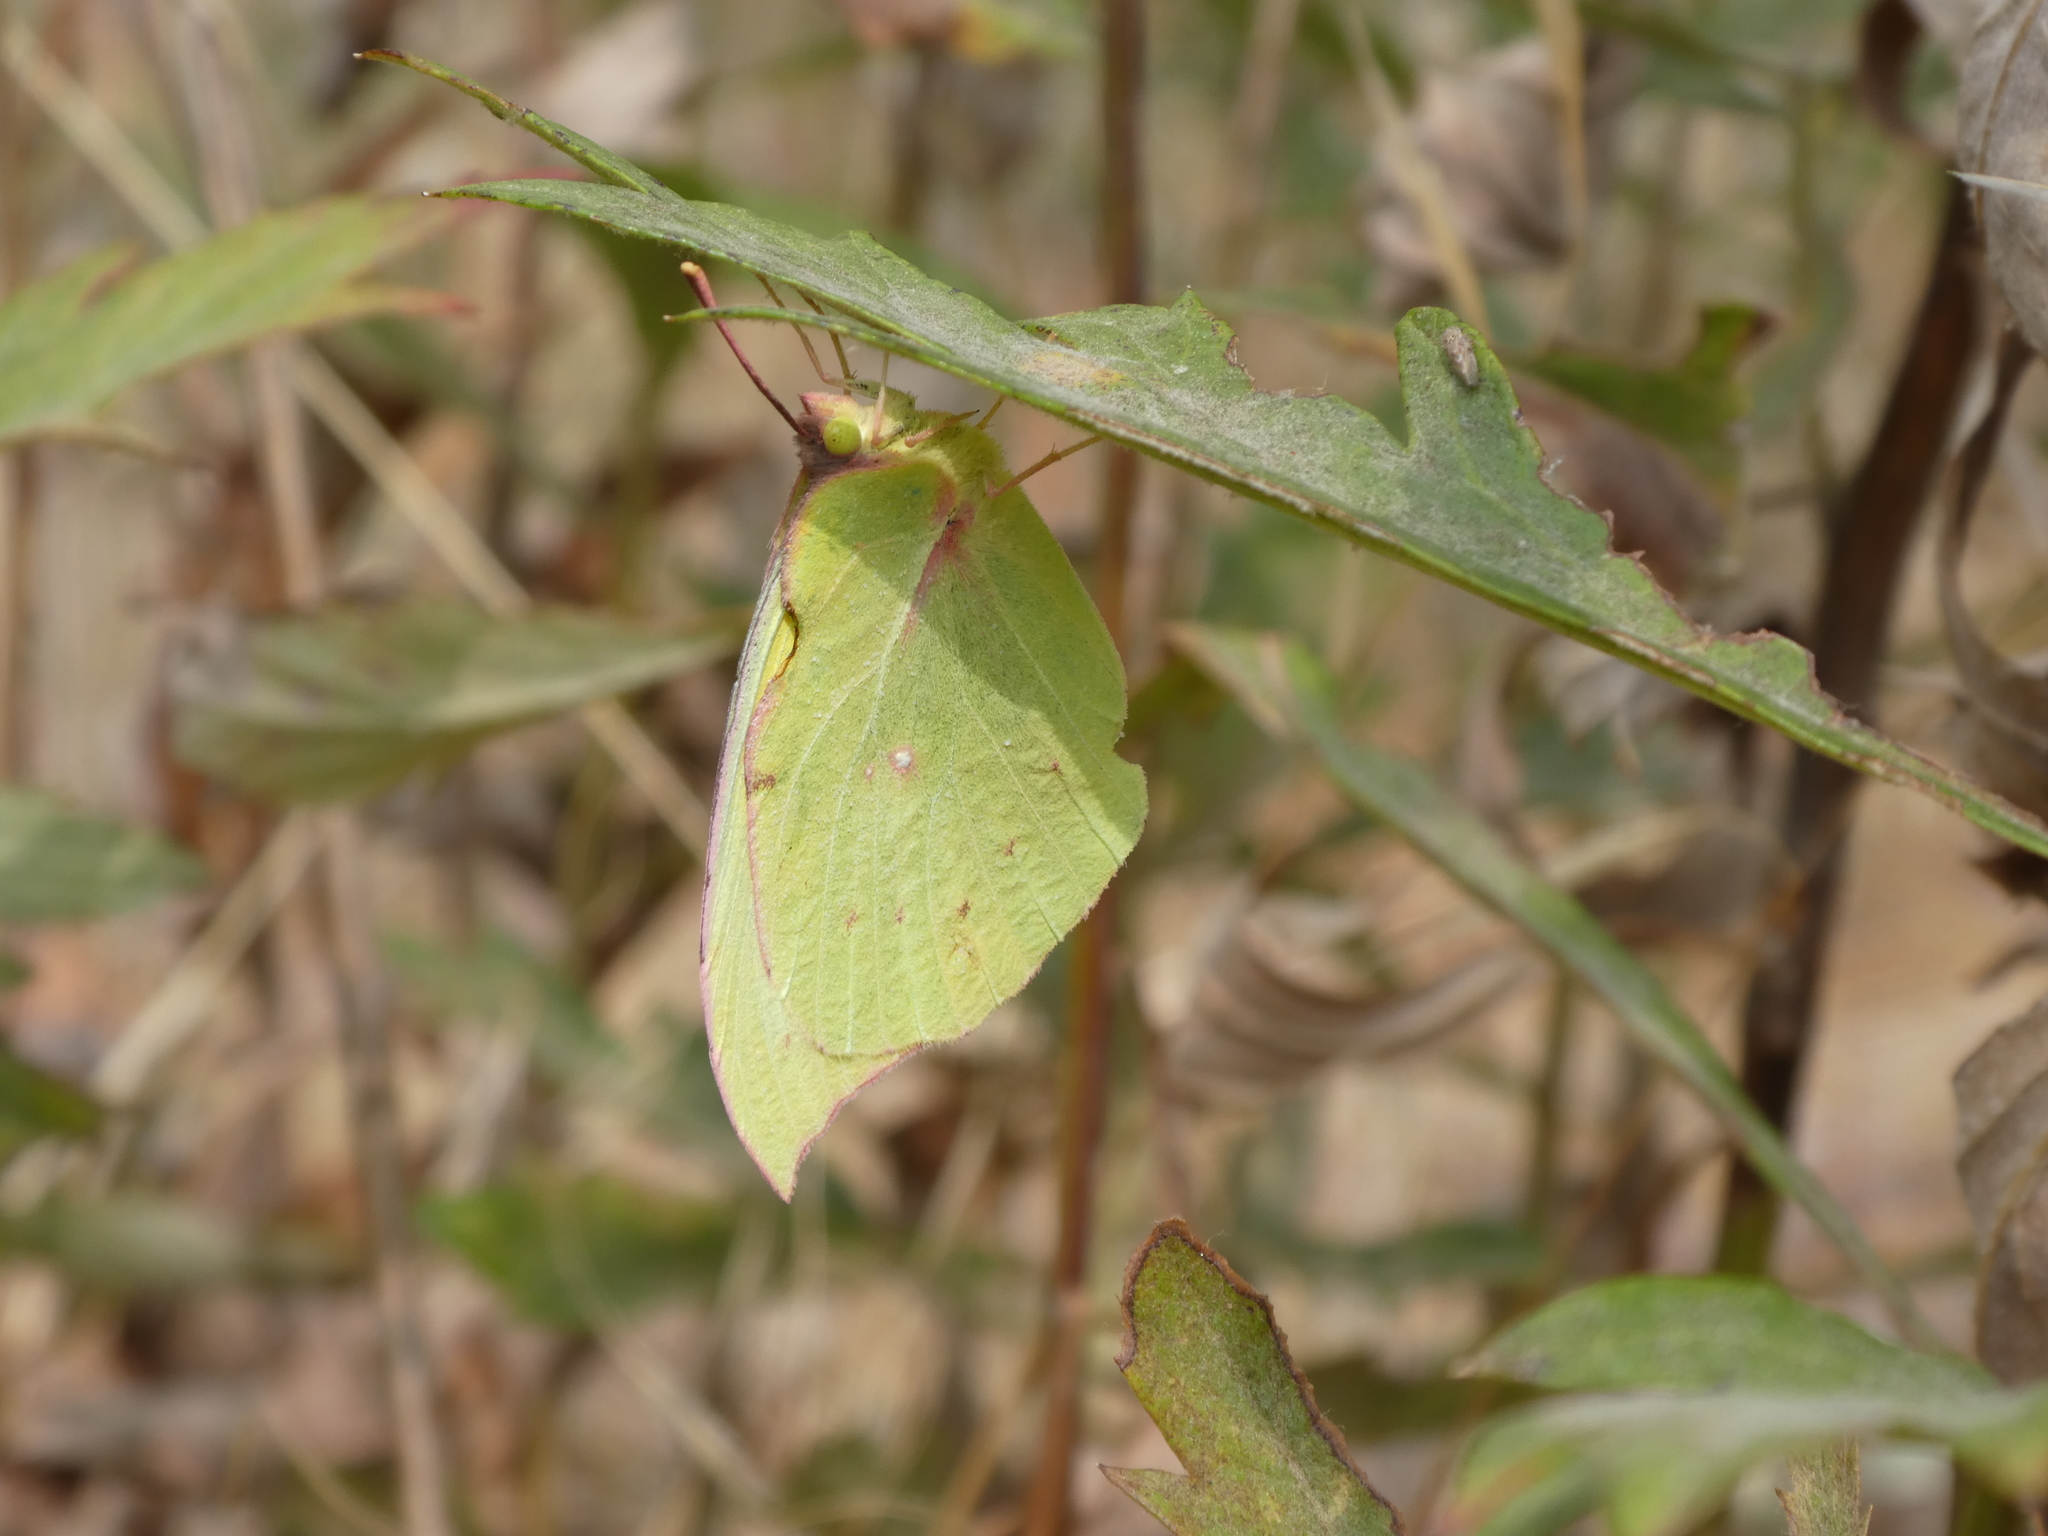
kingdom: Animalia
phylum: Arthropoda
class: Insecta
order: Lepidoptera
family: Pieridae
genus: Zerene
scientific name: Zerene eurydice
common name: California dogface
